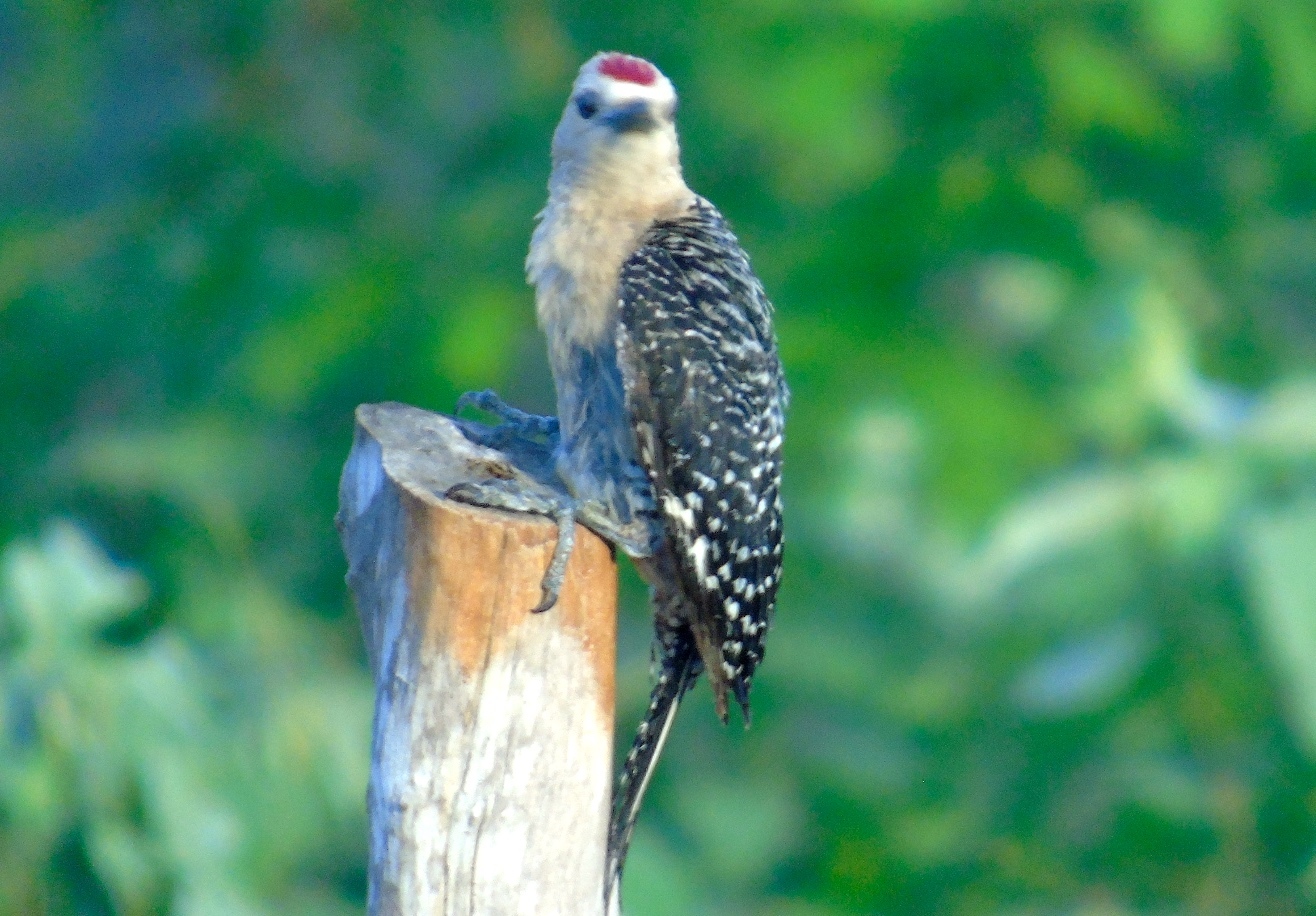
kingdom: Animalia
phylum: Chordata
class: Aves
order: Piciformes
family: Picidae
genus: Melanerpes
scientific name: Melanerpes uropygialis
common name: Gila woodpecker
